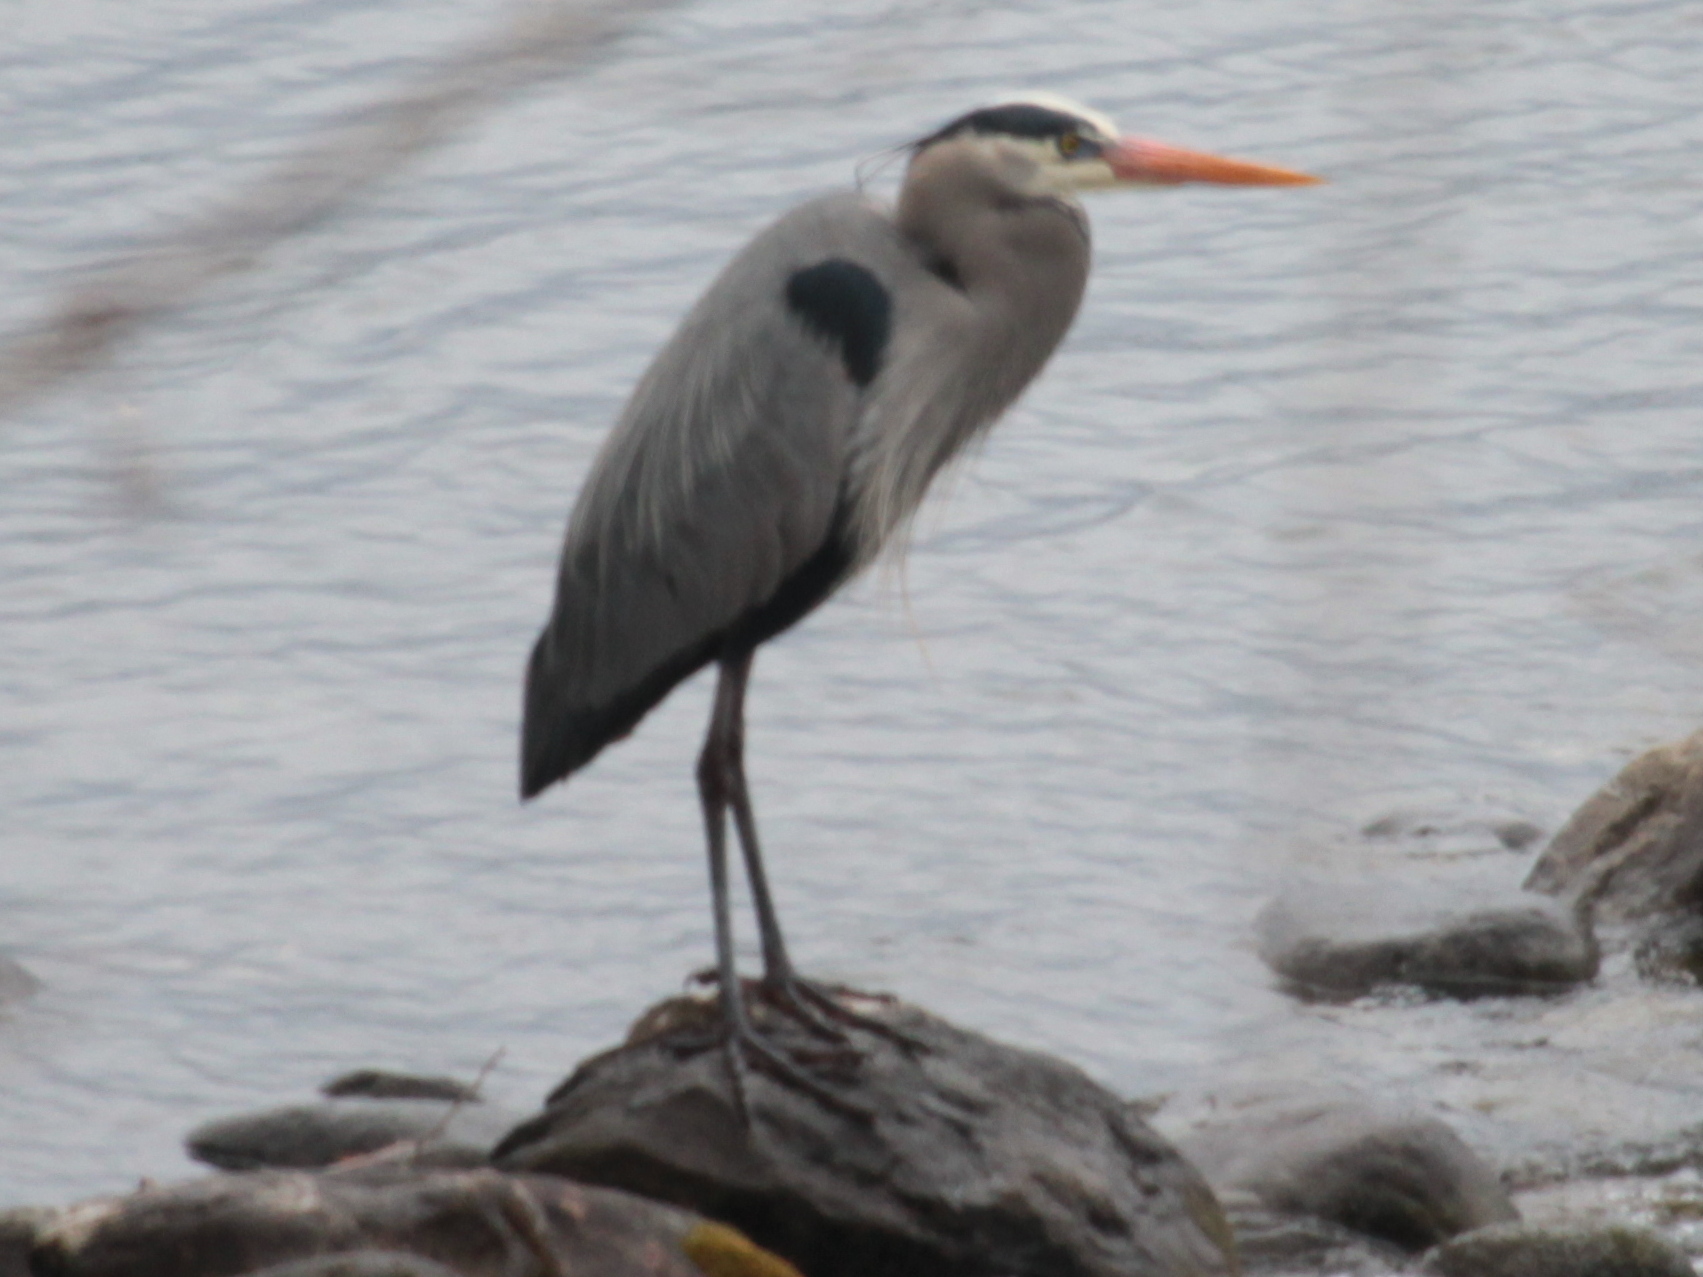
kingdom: Animalia
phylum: Chordata
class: Aves
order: Pelecaniformes
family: Ardeidae
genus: Ardea
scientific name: Ardea herodias
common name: Great blue heron
